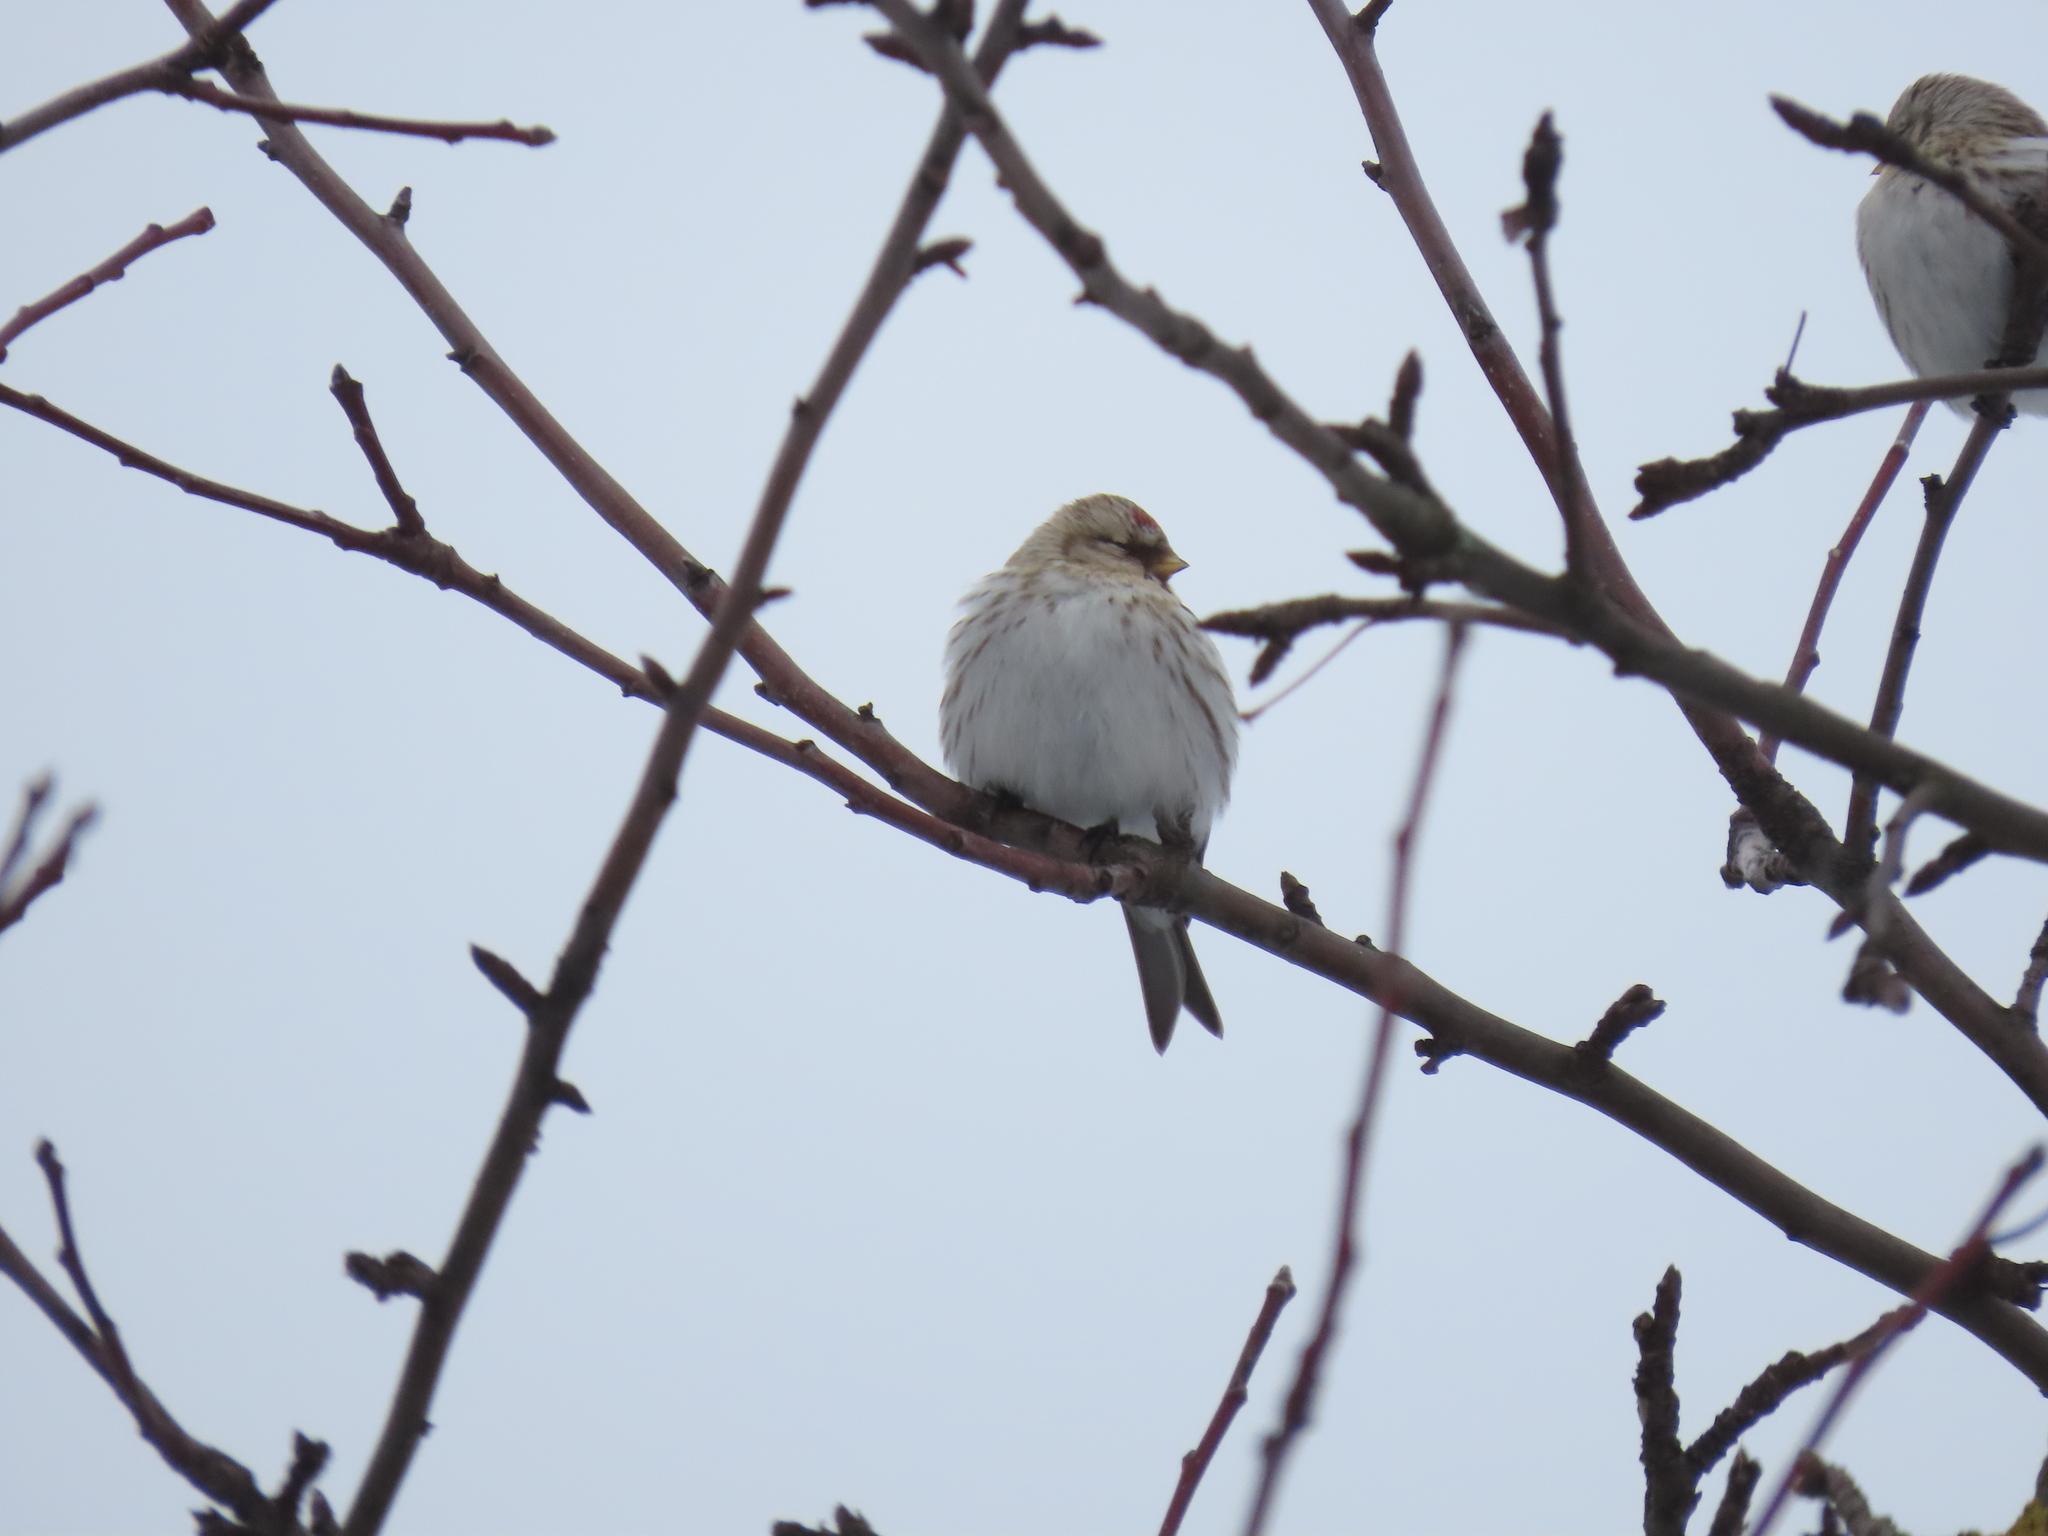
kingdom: Animalia
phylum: Chordata
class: Aves
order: Passeriformes
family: Fringillidae
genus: Acanthis
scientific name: Acanthis hornemanni
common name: Arctic redpoll
